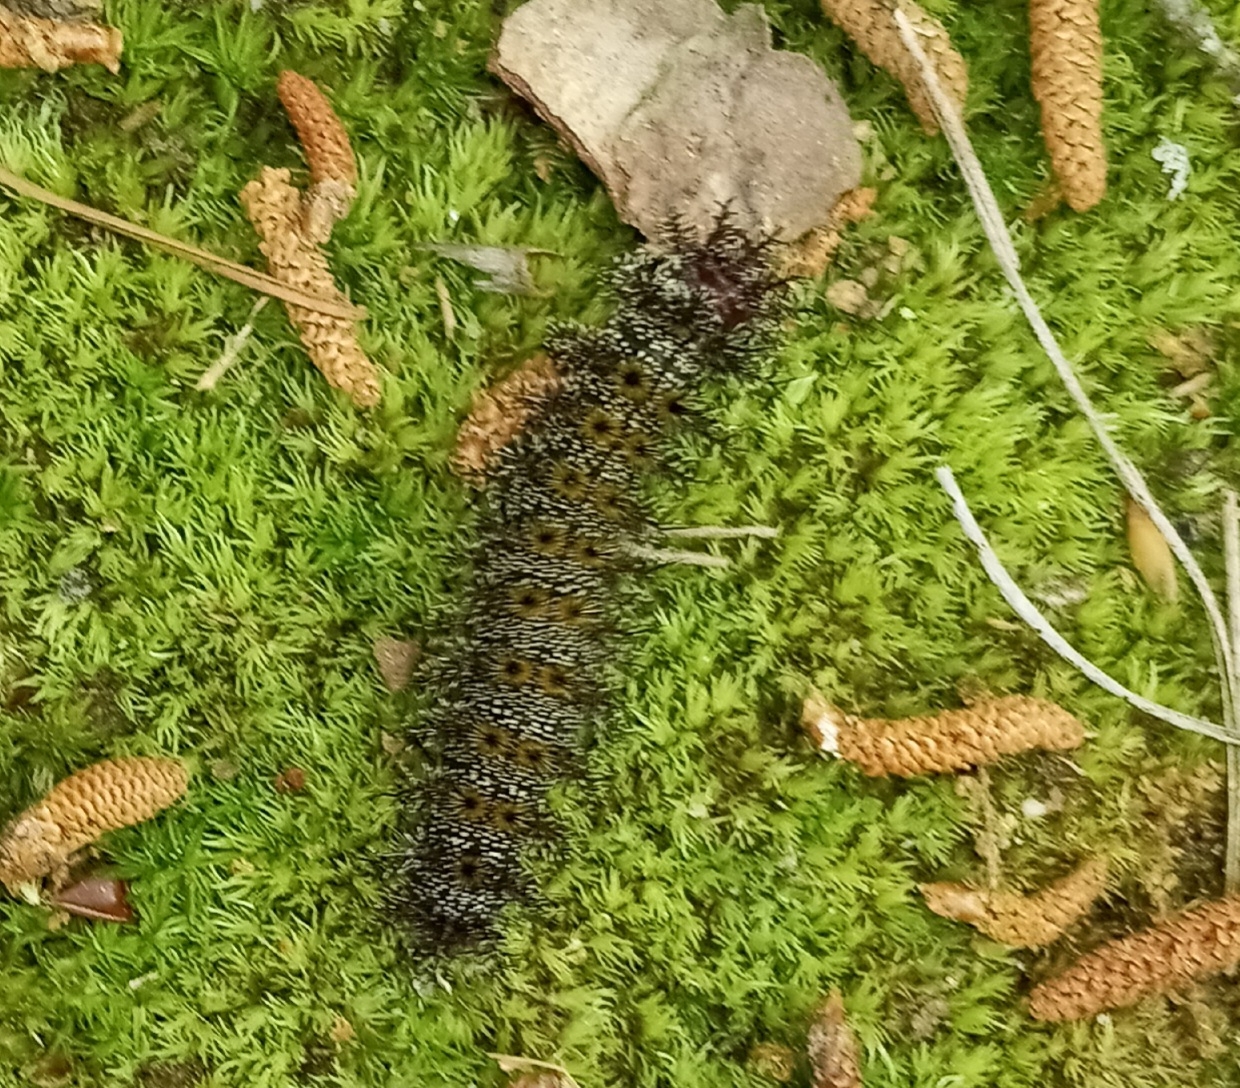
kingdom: Animalia
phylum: Arthropoda
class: Insecta
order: Lepidoptera
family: Saturniidae
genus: Hemileuca
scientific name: Hemileuca maia
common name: Eastern buckmoth
